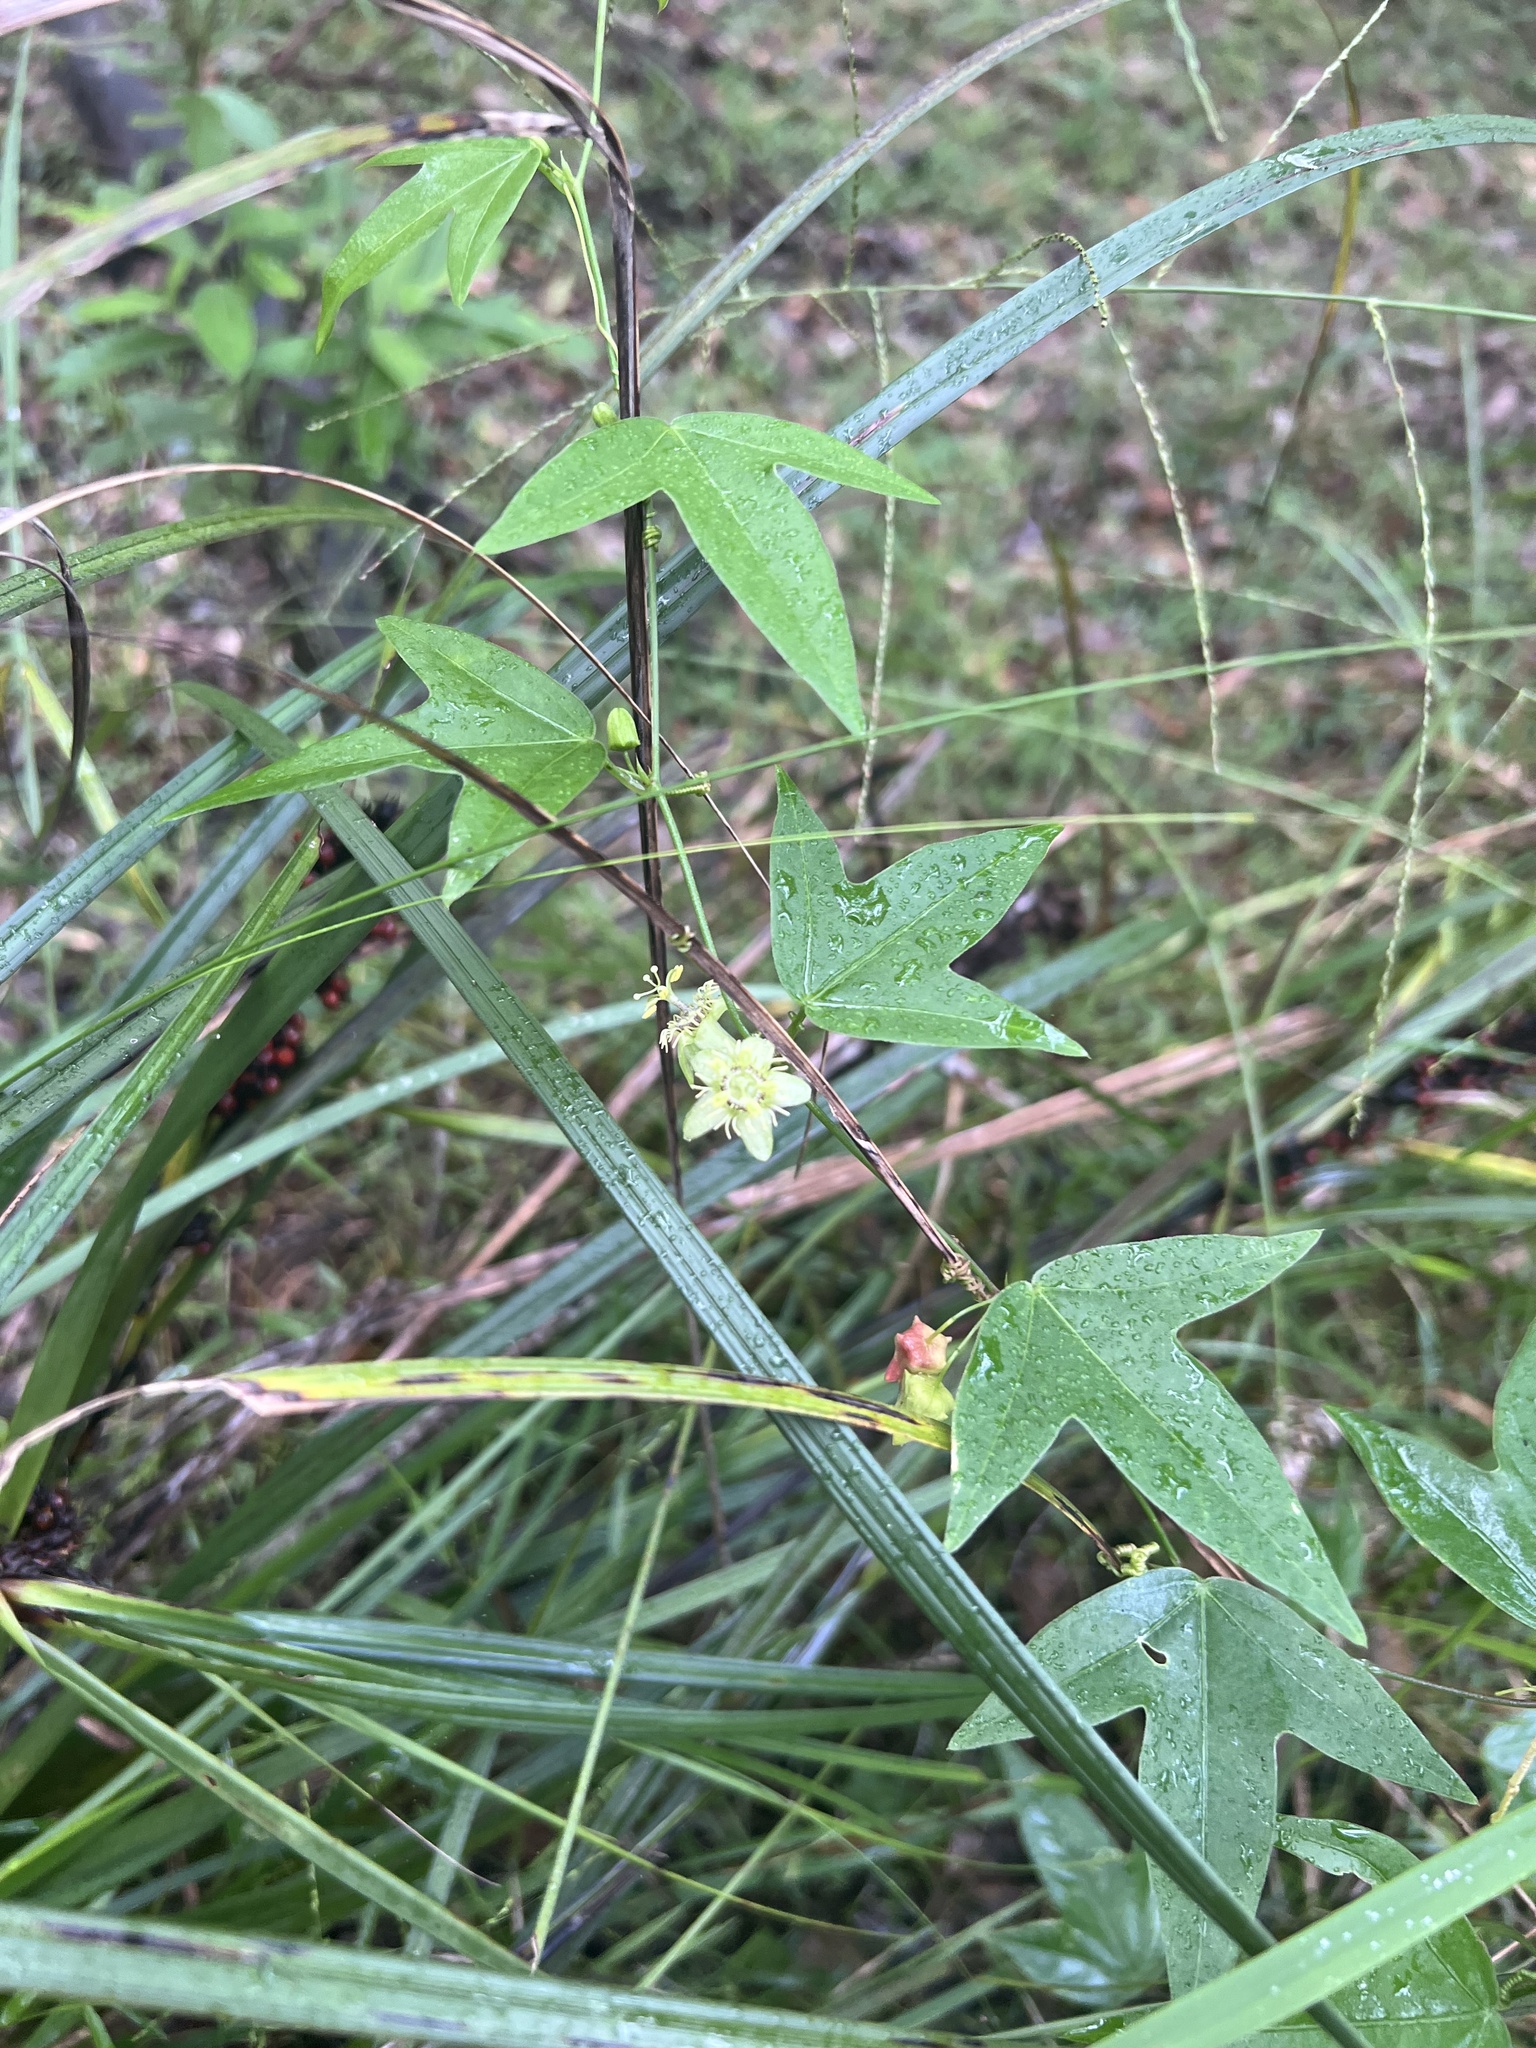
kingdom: Plantae
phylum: Tracheophyta
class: Magnoliopsida
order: Malpighiales
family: Passifloraceae
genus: Passiflora
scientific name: Passiflora suberosa
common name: Wild passionfruit
